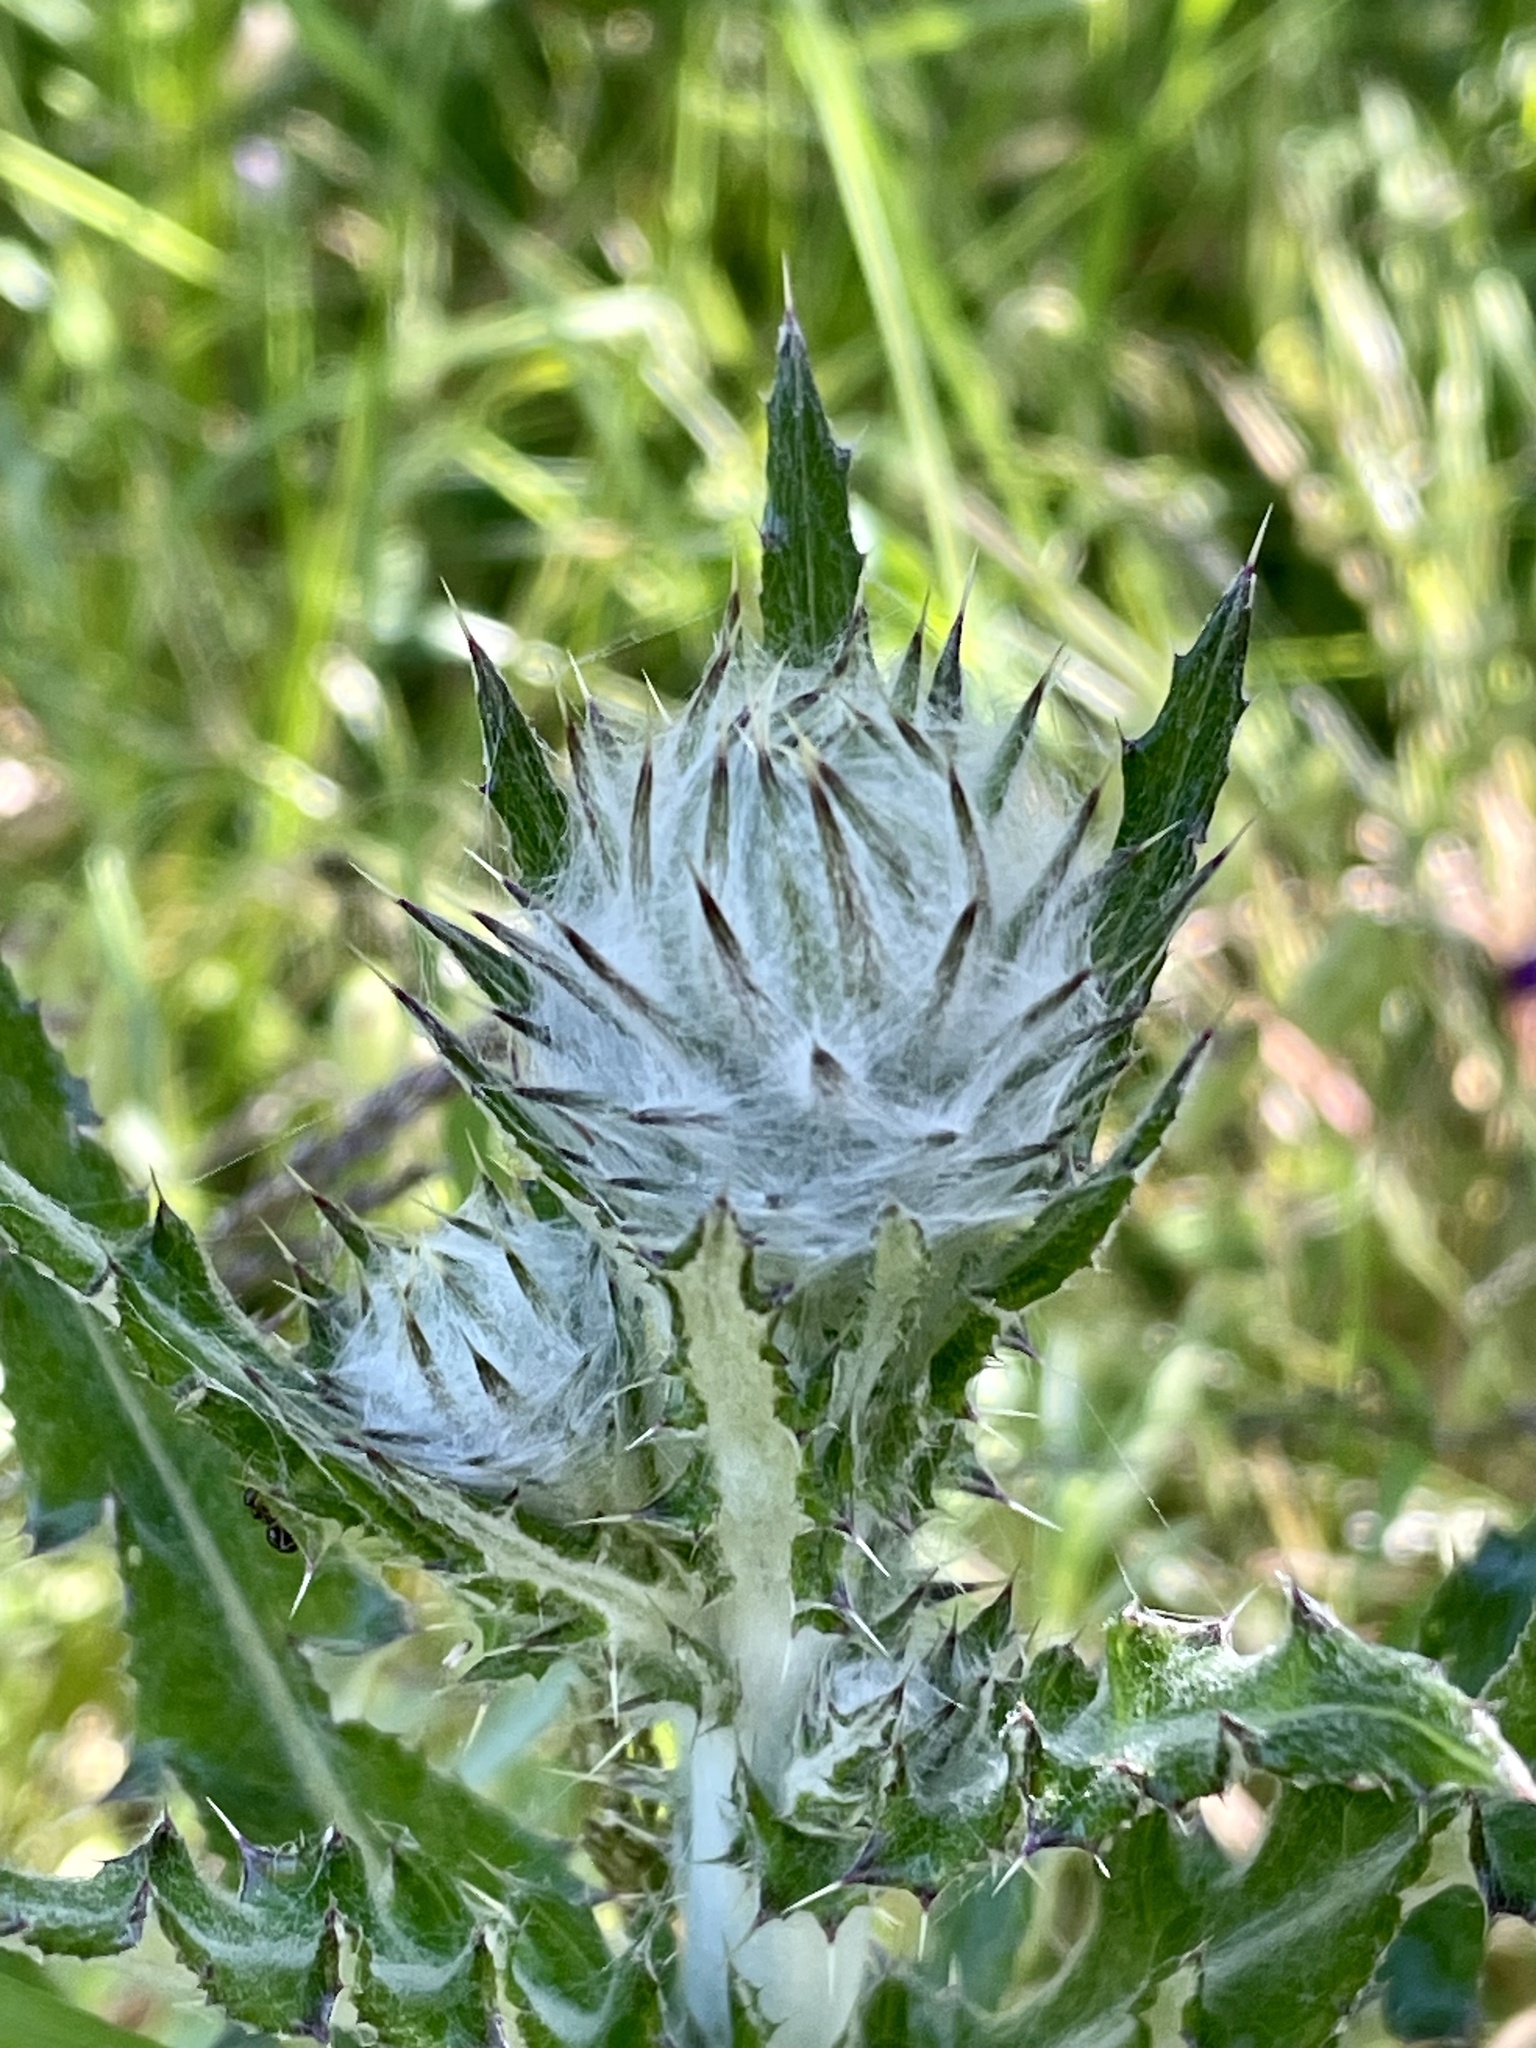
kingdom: Plantae
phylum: Tracheophyta
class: Magnoliopsida
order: Asterales
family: Asteraceae
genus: Cirsium
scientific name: Cirsium occidentale
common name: Western thistle
